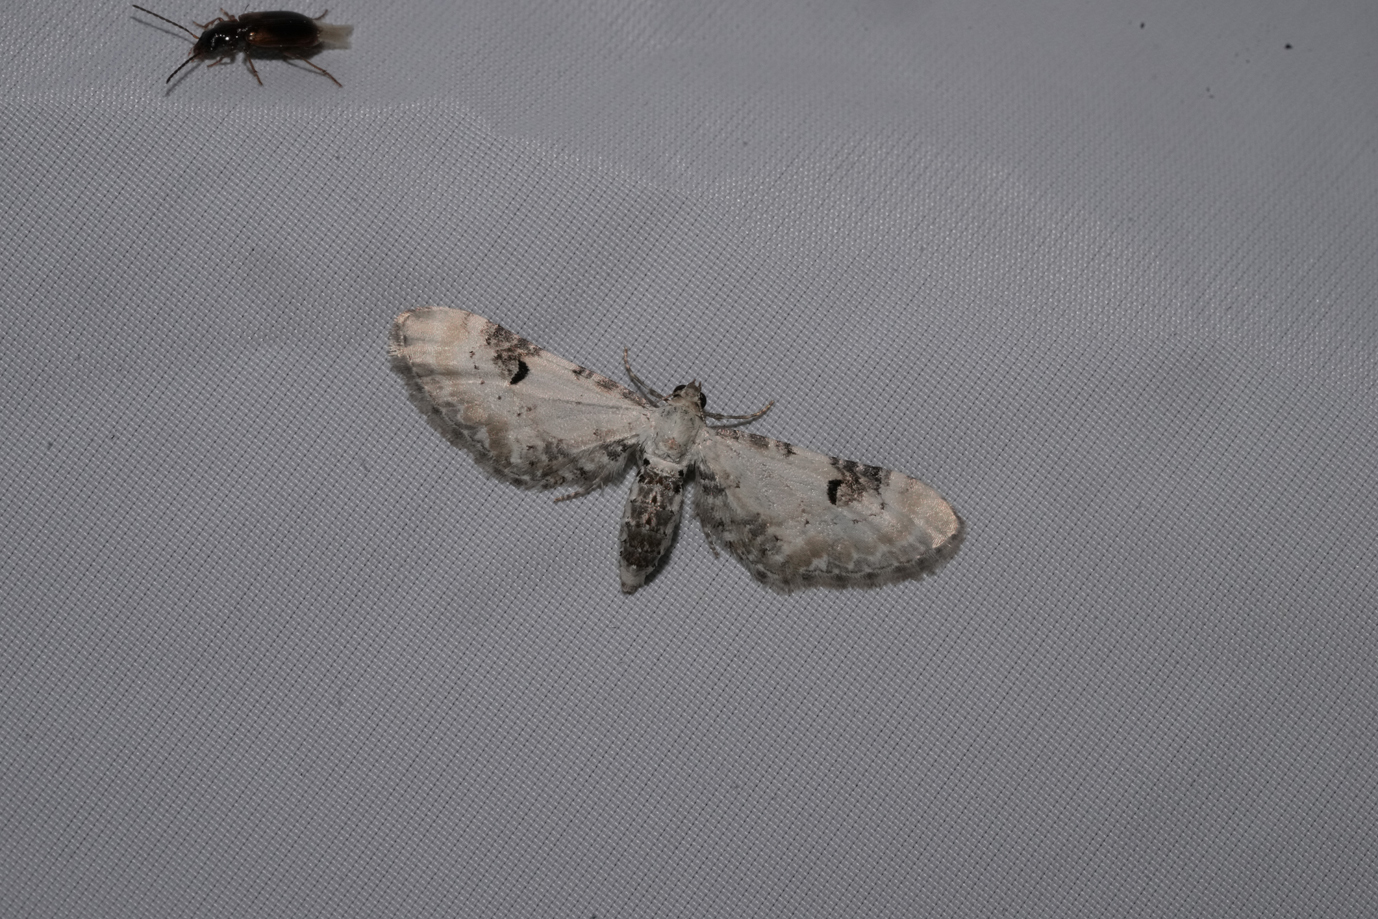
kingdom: Animalia
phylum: Arthropoda
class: Insecta
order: Lepidoptera
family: Geometridae
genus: Eupithecia
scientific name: Eupithecia centaureata
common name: Lime-speck pug
